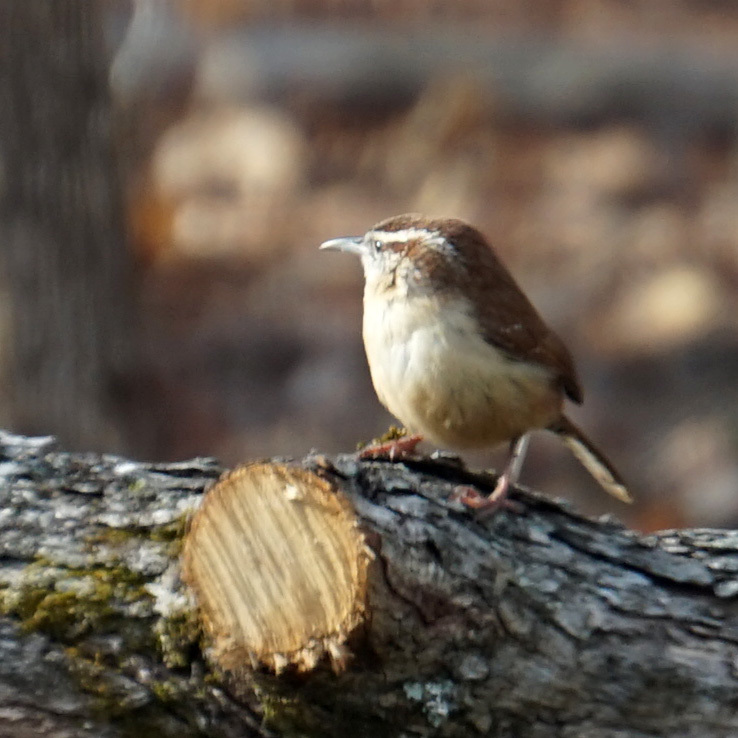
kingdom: Animalia
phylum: Chordata
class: Aves
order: Passeriformes
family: Troglodytidae
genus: Thryothorus
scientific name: Thryothorus ludovicianus
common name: Carolina wren
